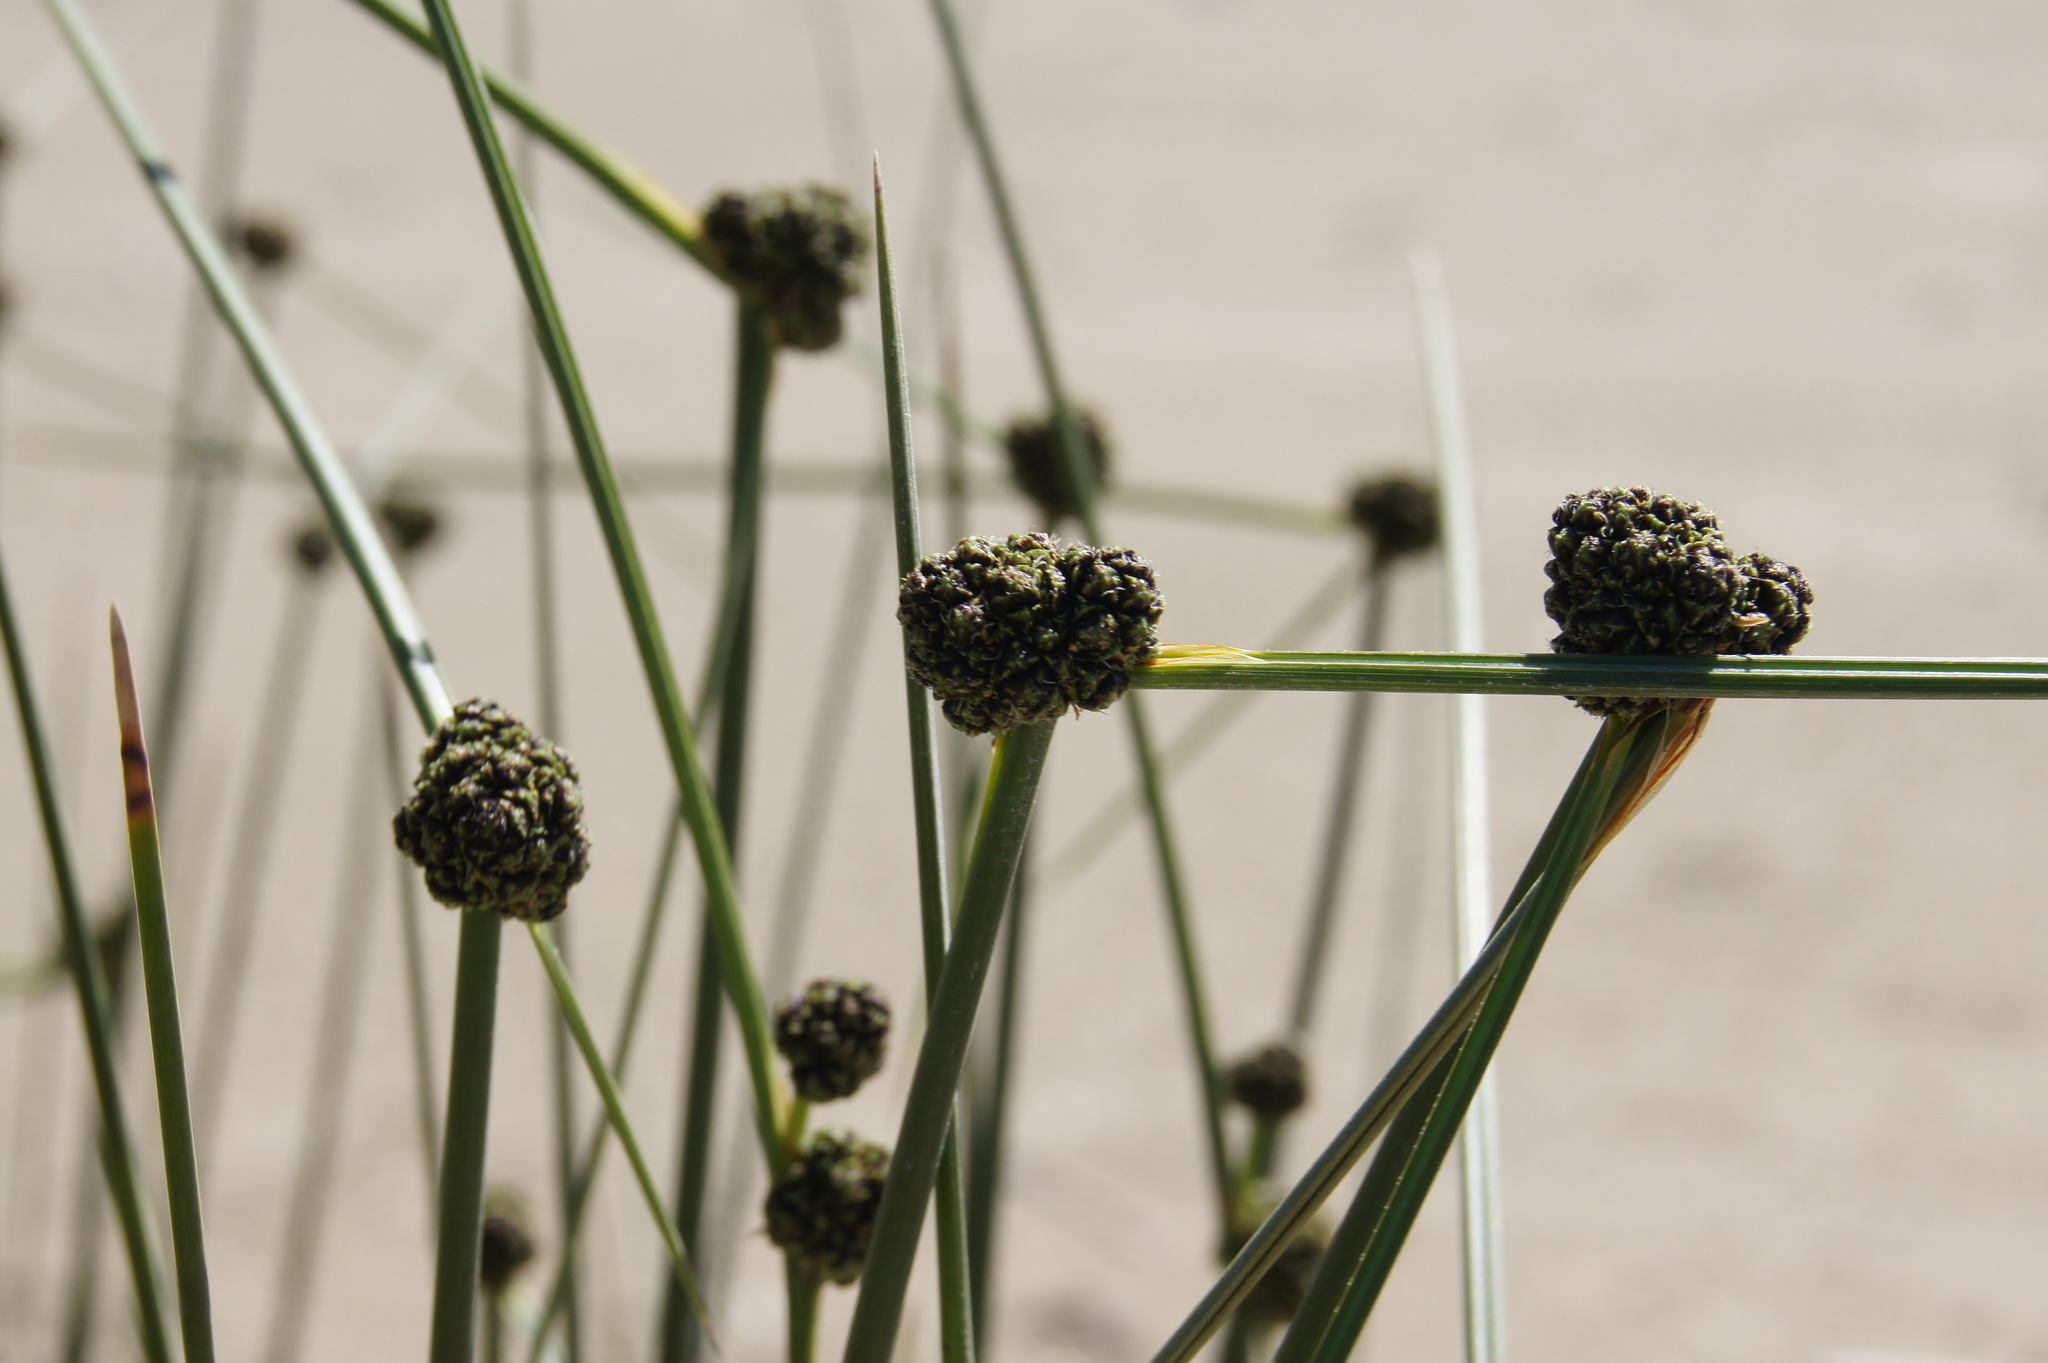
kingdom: Plantae
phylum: Tracheophyta
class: Liliopsida
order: Poales
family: Cyperaceae
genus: Scirpoides
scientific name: Scirpoides holoschoenus
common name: Round-headed club-rush
